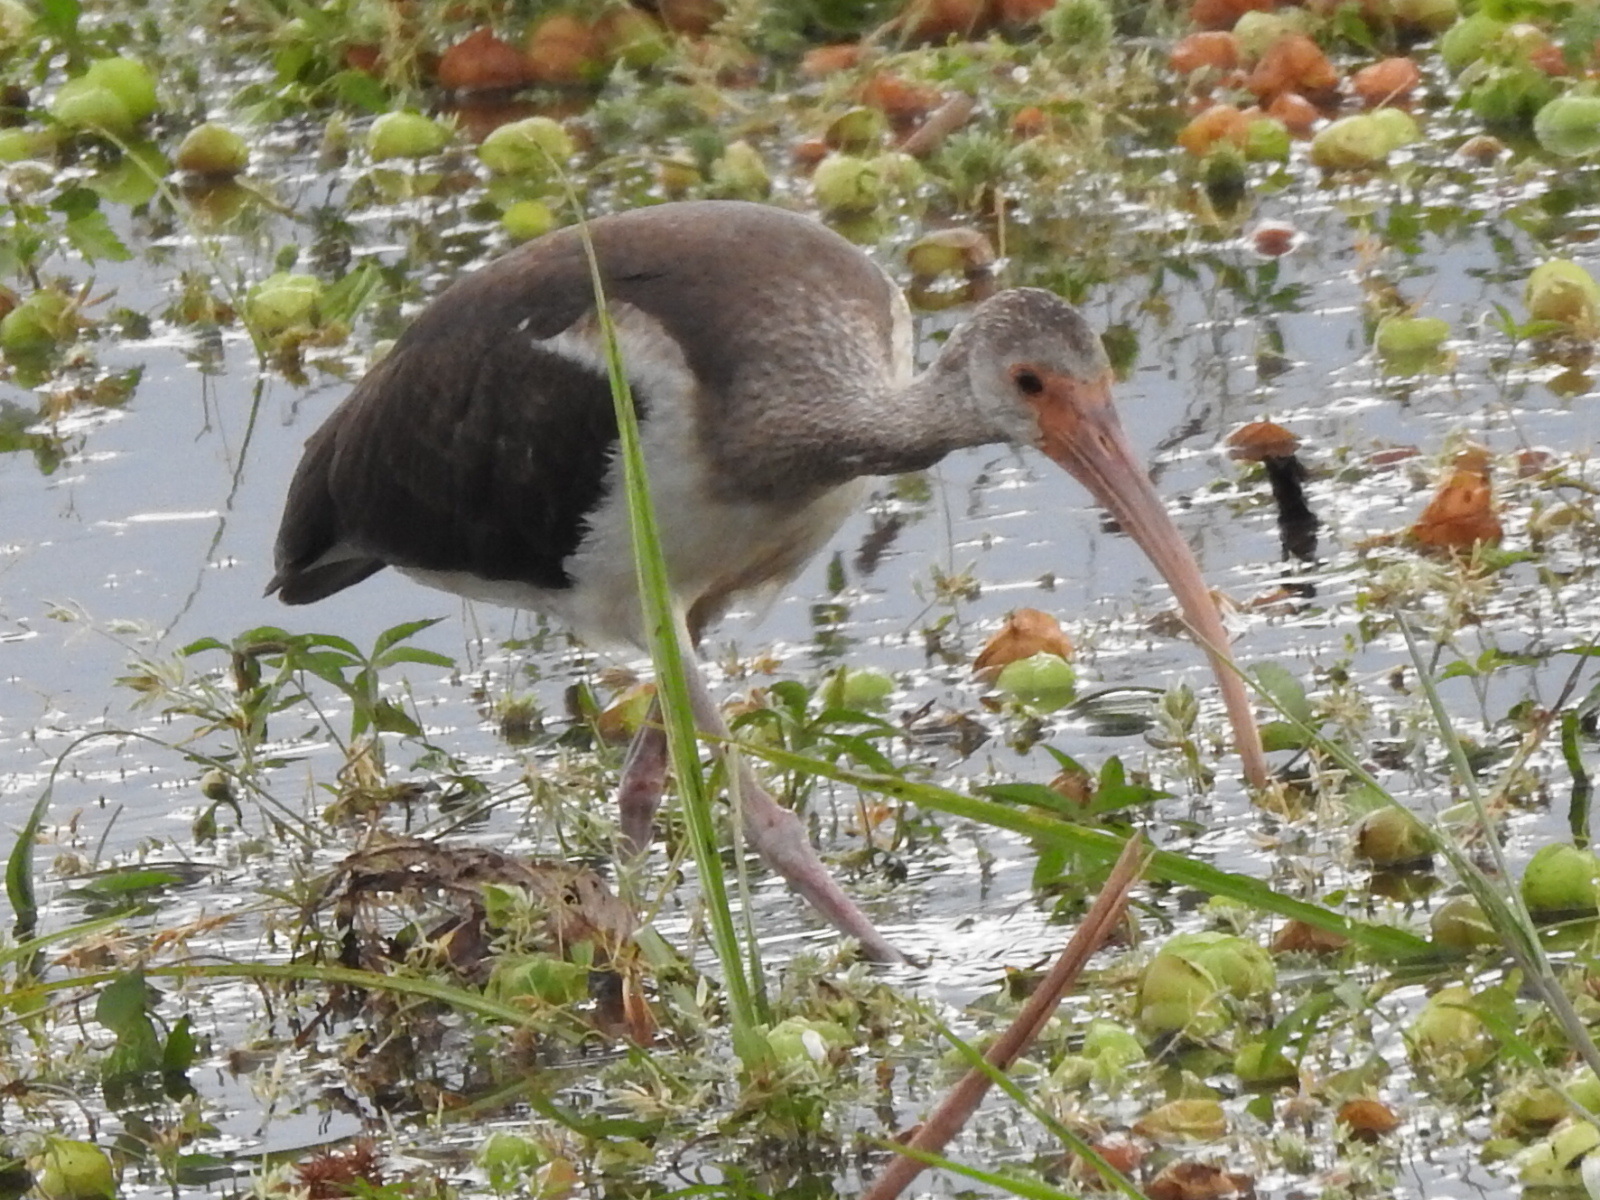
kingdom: Animalia
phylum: Chordata
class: Aves
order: Pelecaniformes
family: Threskiornithidae
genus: Eudocimus
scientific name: Eudocimus albus
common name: White ibis
